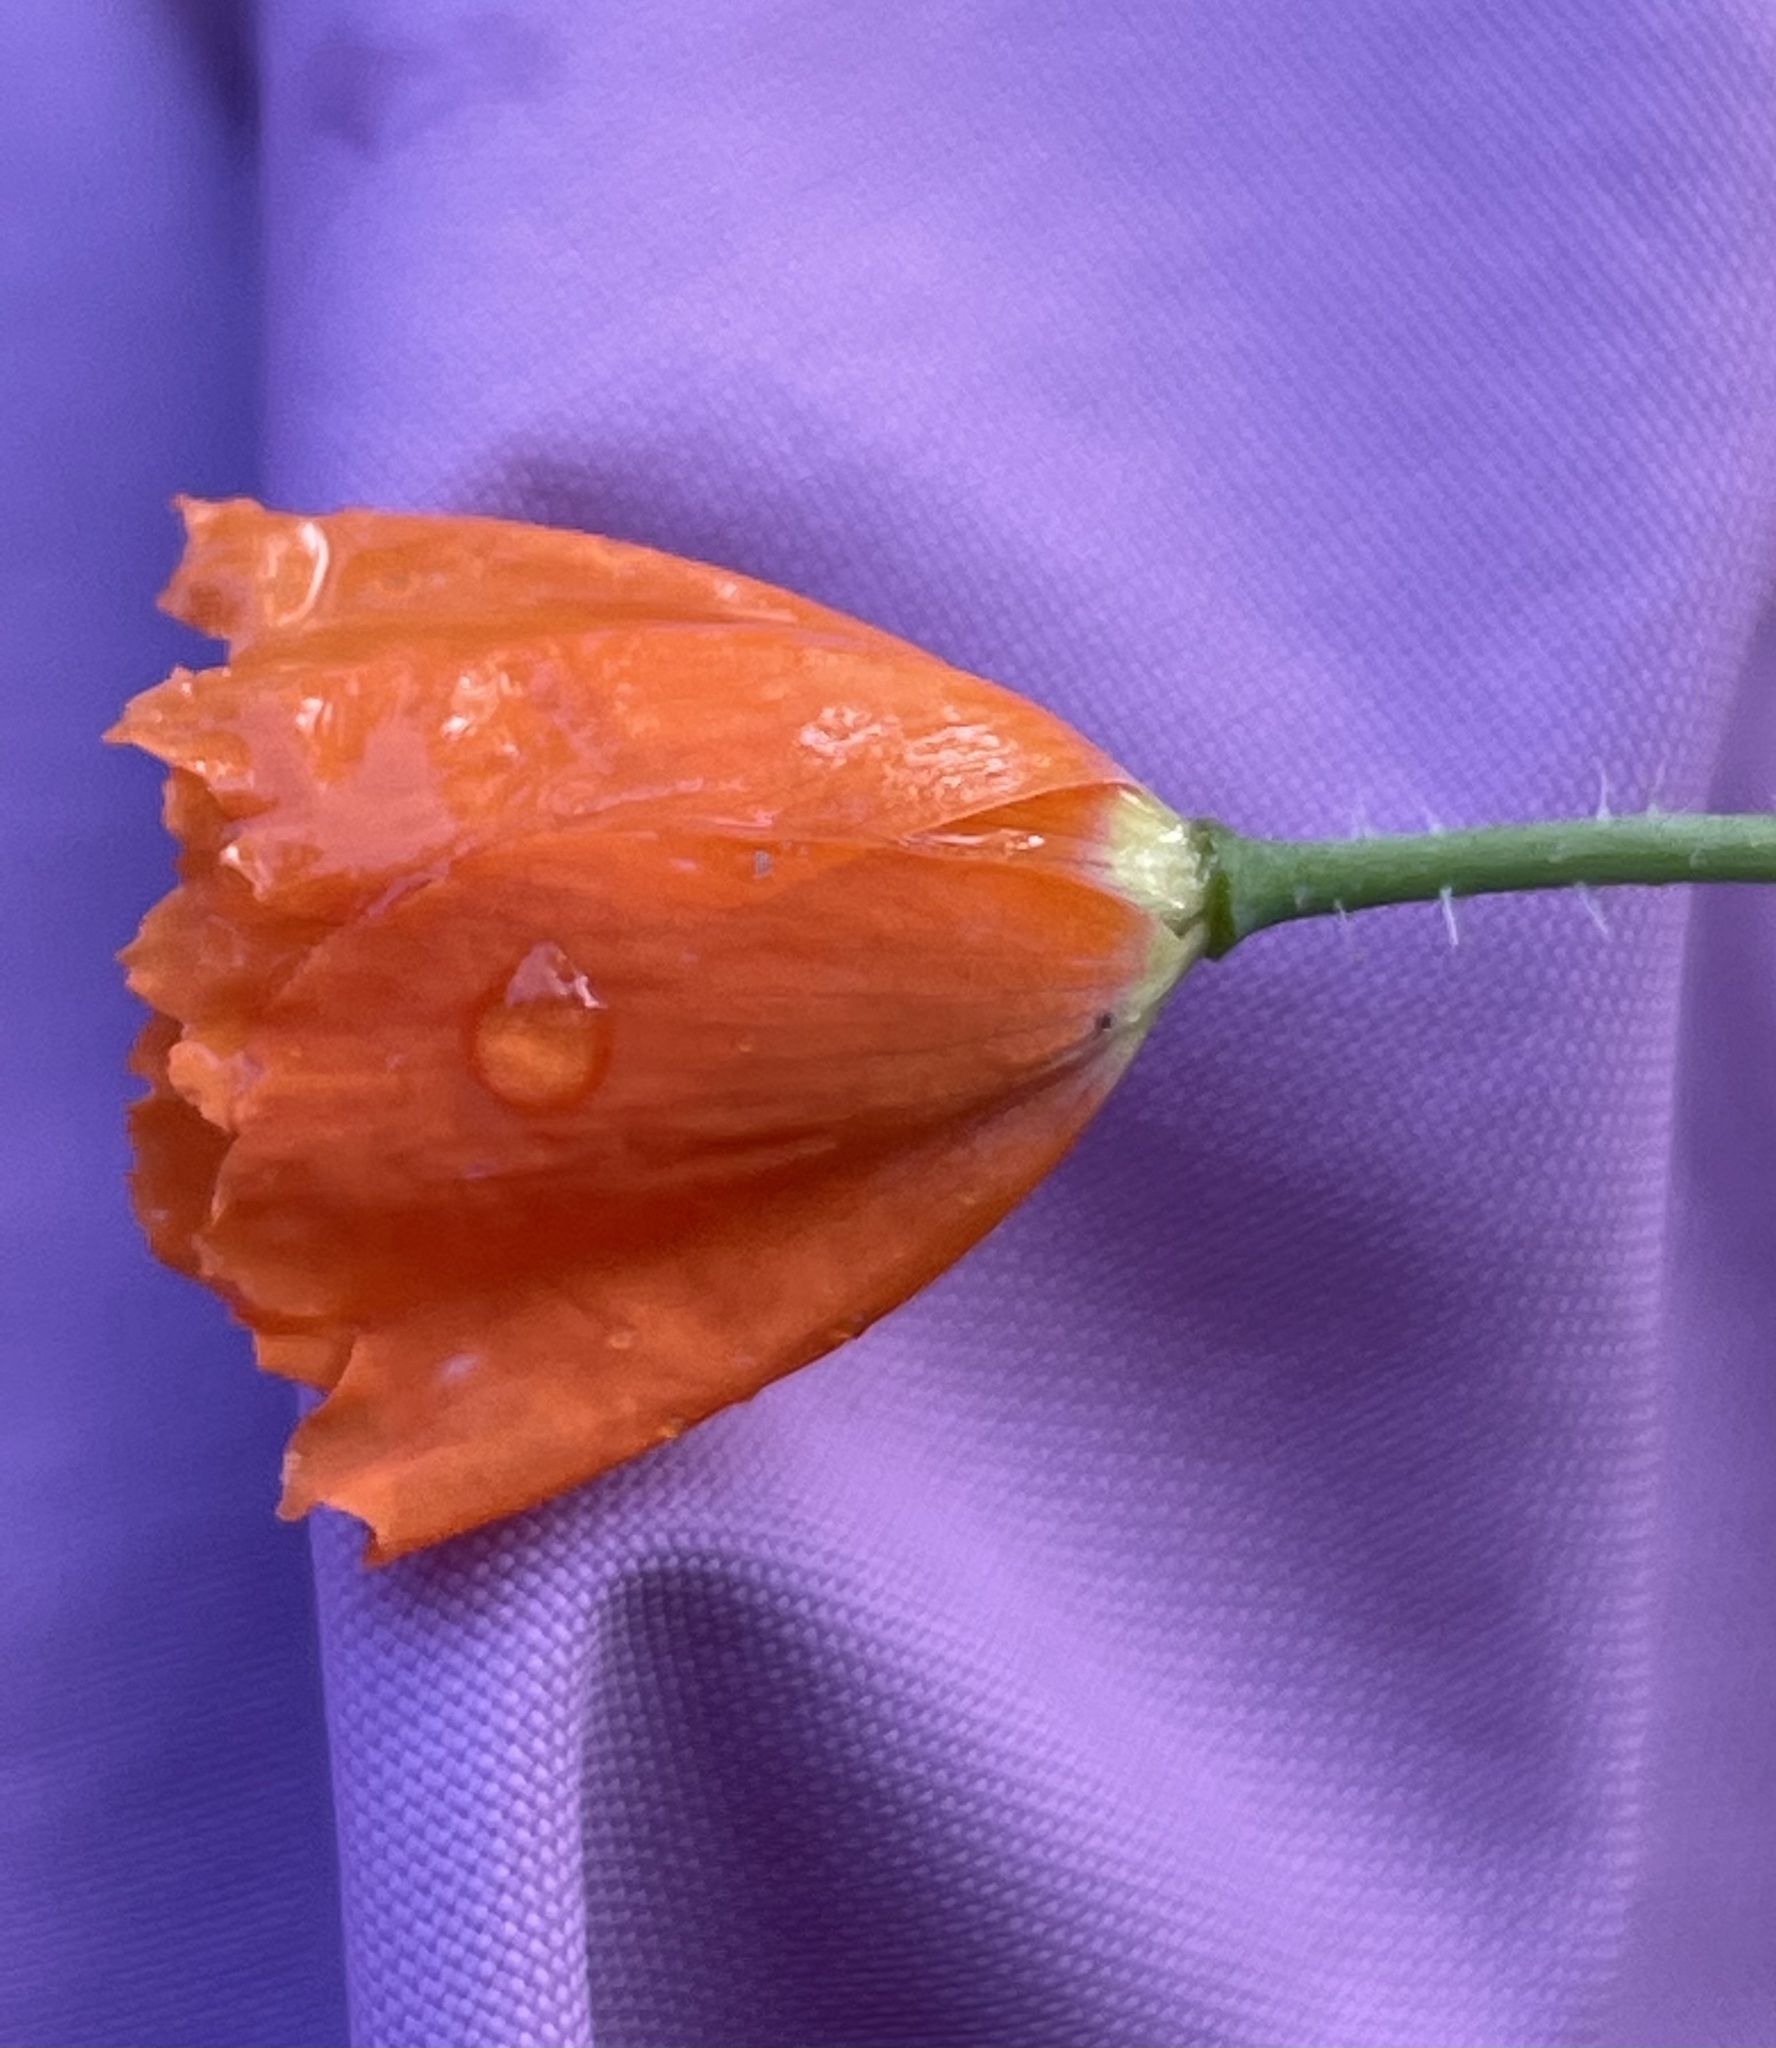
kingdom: Plantae
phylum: Tracheophyta
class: Magnoliopsida
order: Ranunculales
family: Papaveraceae
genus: Papaver
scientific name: Papaver californicum
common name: Fire poppy
